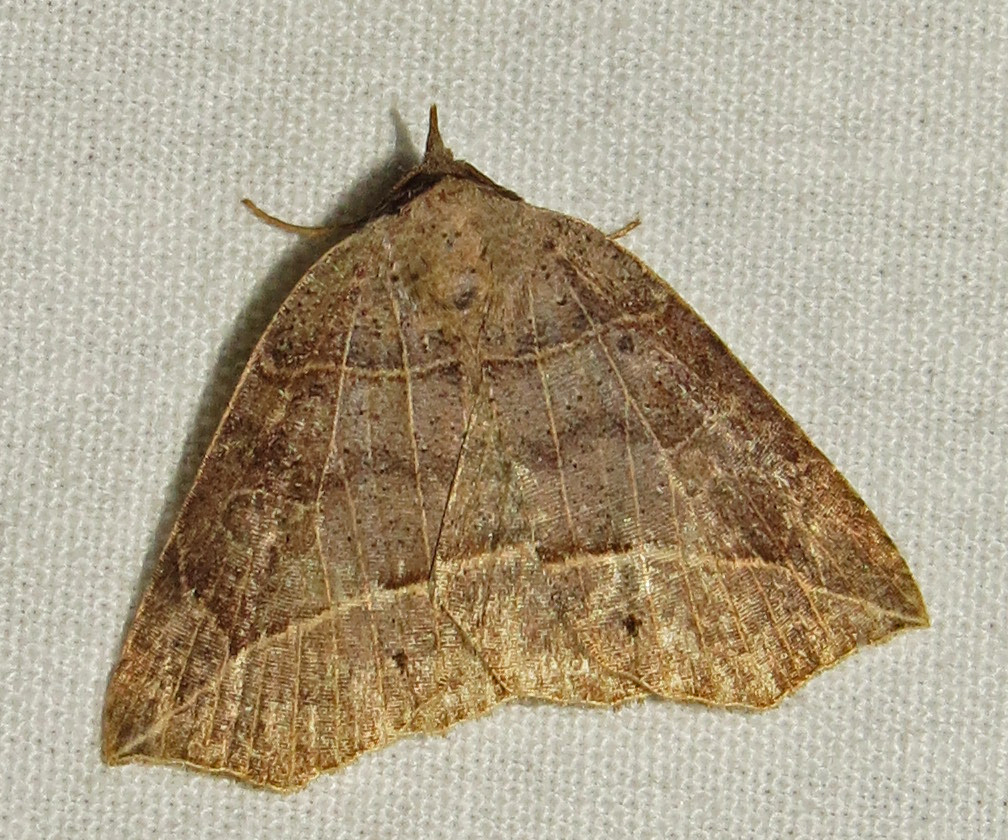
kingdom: Animalia
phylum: Arthropoda
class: Insecta
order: Lepidoptera
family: Erebidae
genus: Isogona
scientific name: Isogona tenuis
